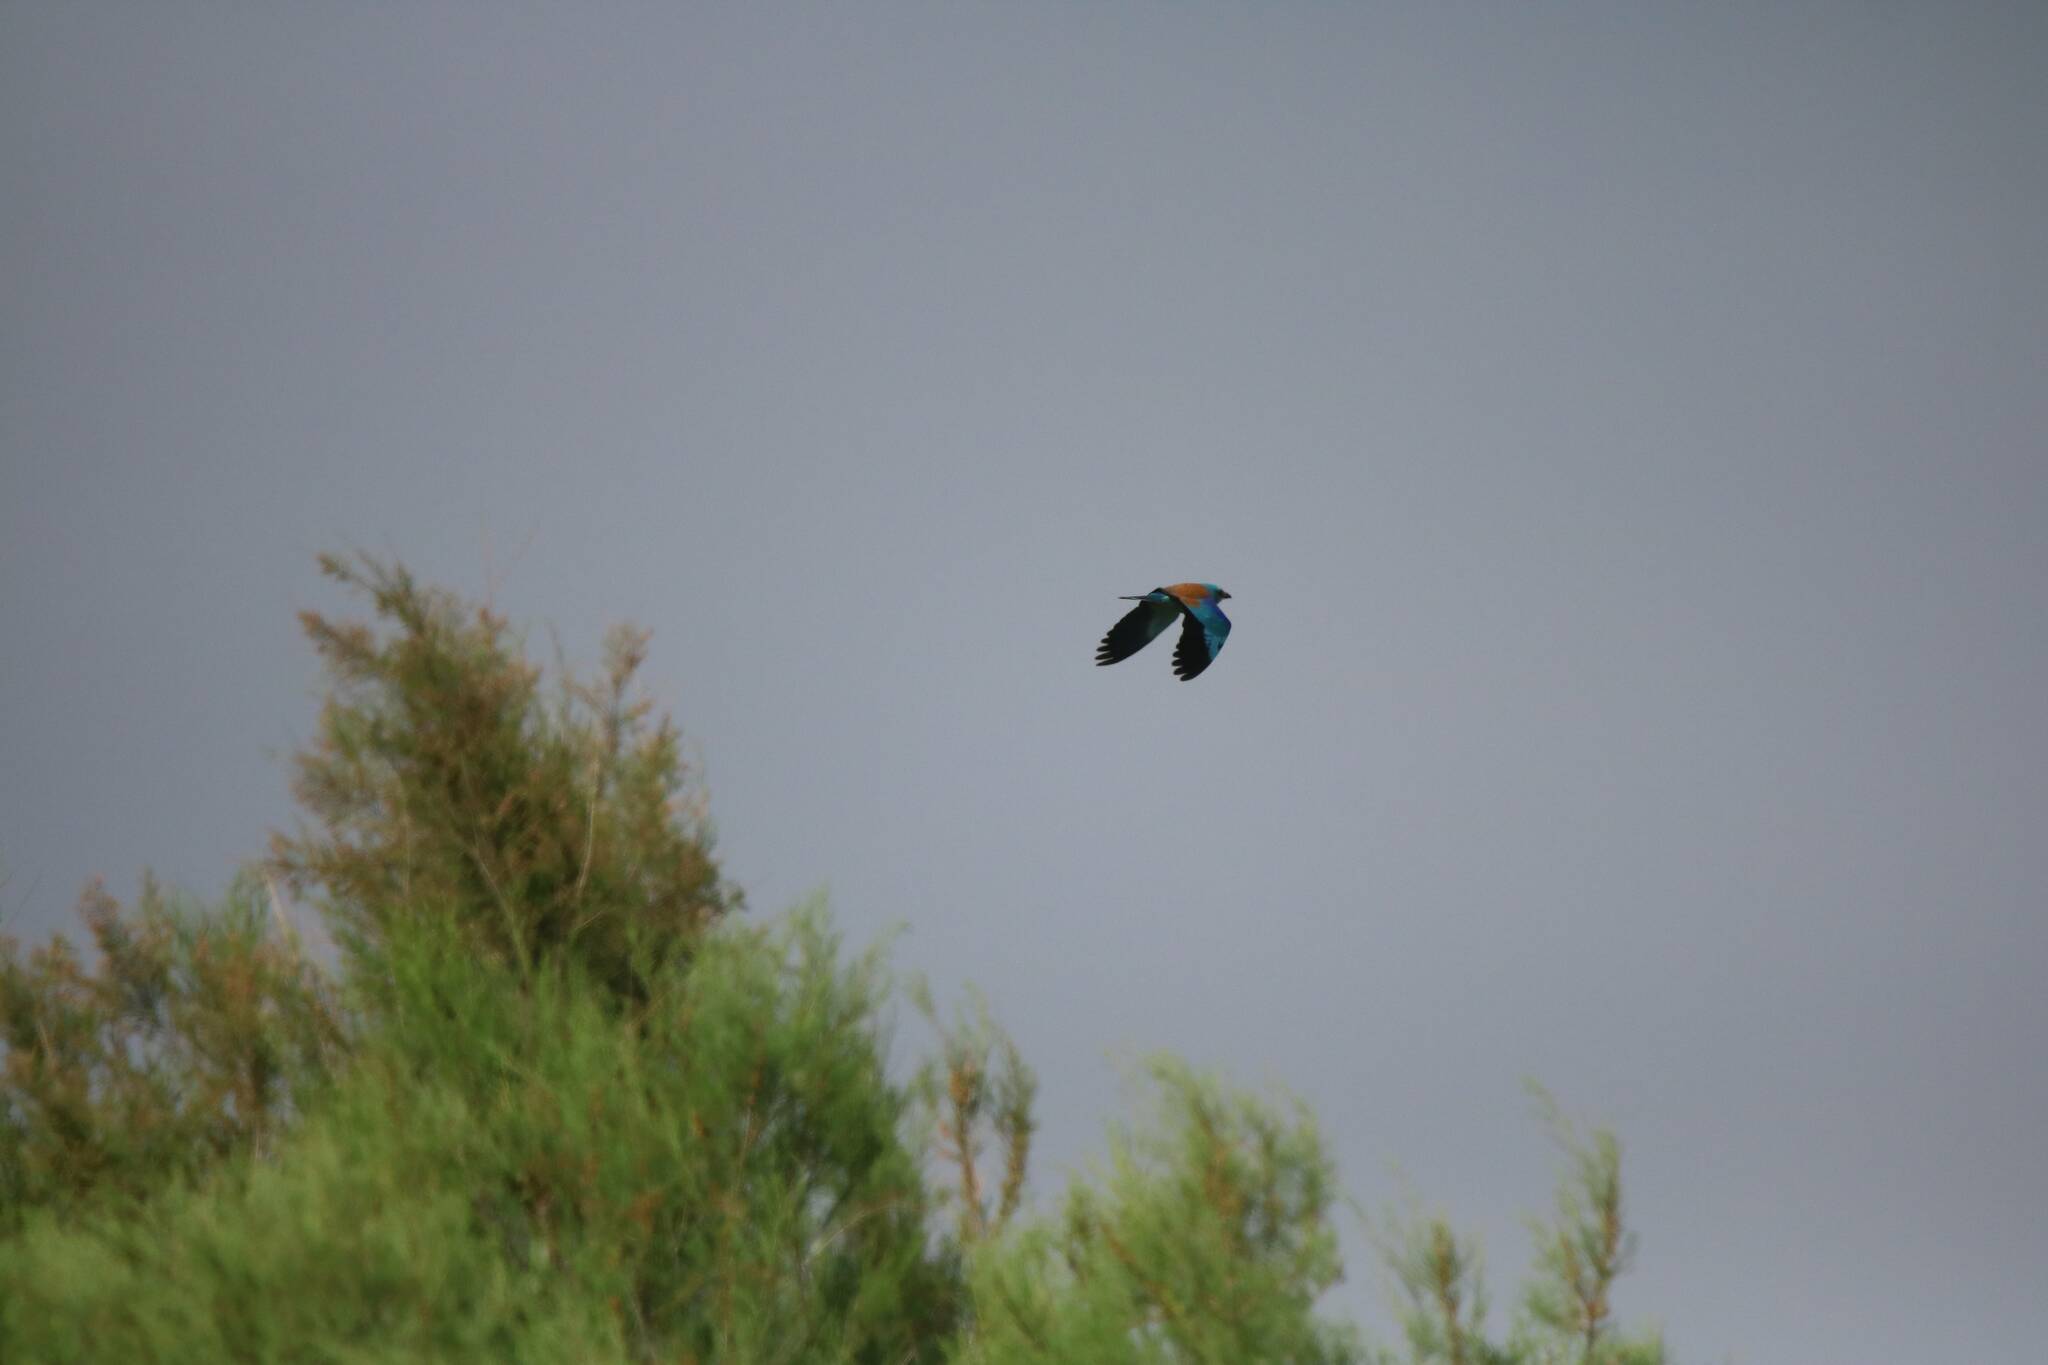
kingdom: Animalia
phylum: Chordata
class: Aves
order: Coraciiformes
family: Coraciidae
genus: Coracias
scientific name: Coracias garrulus
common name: European roller
